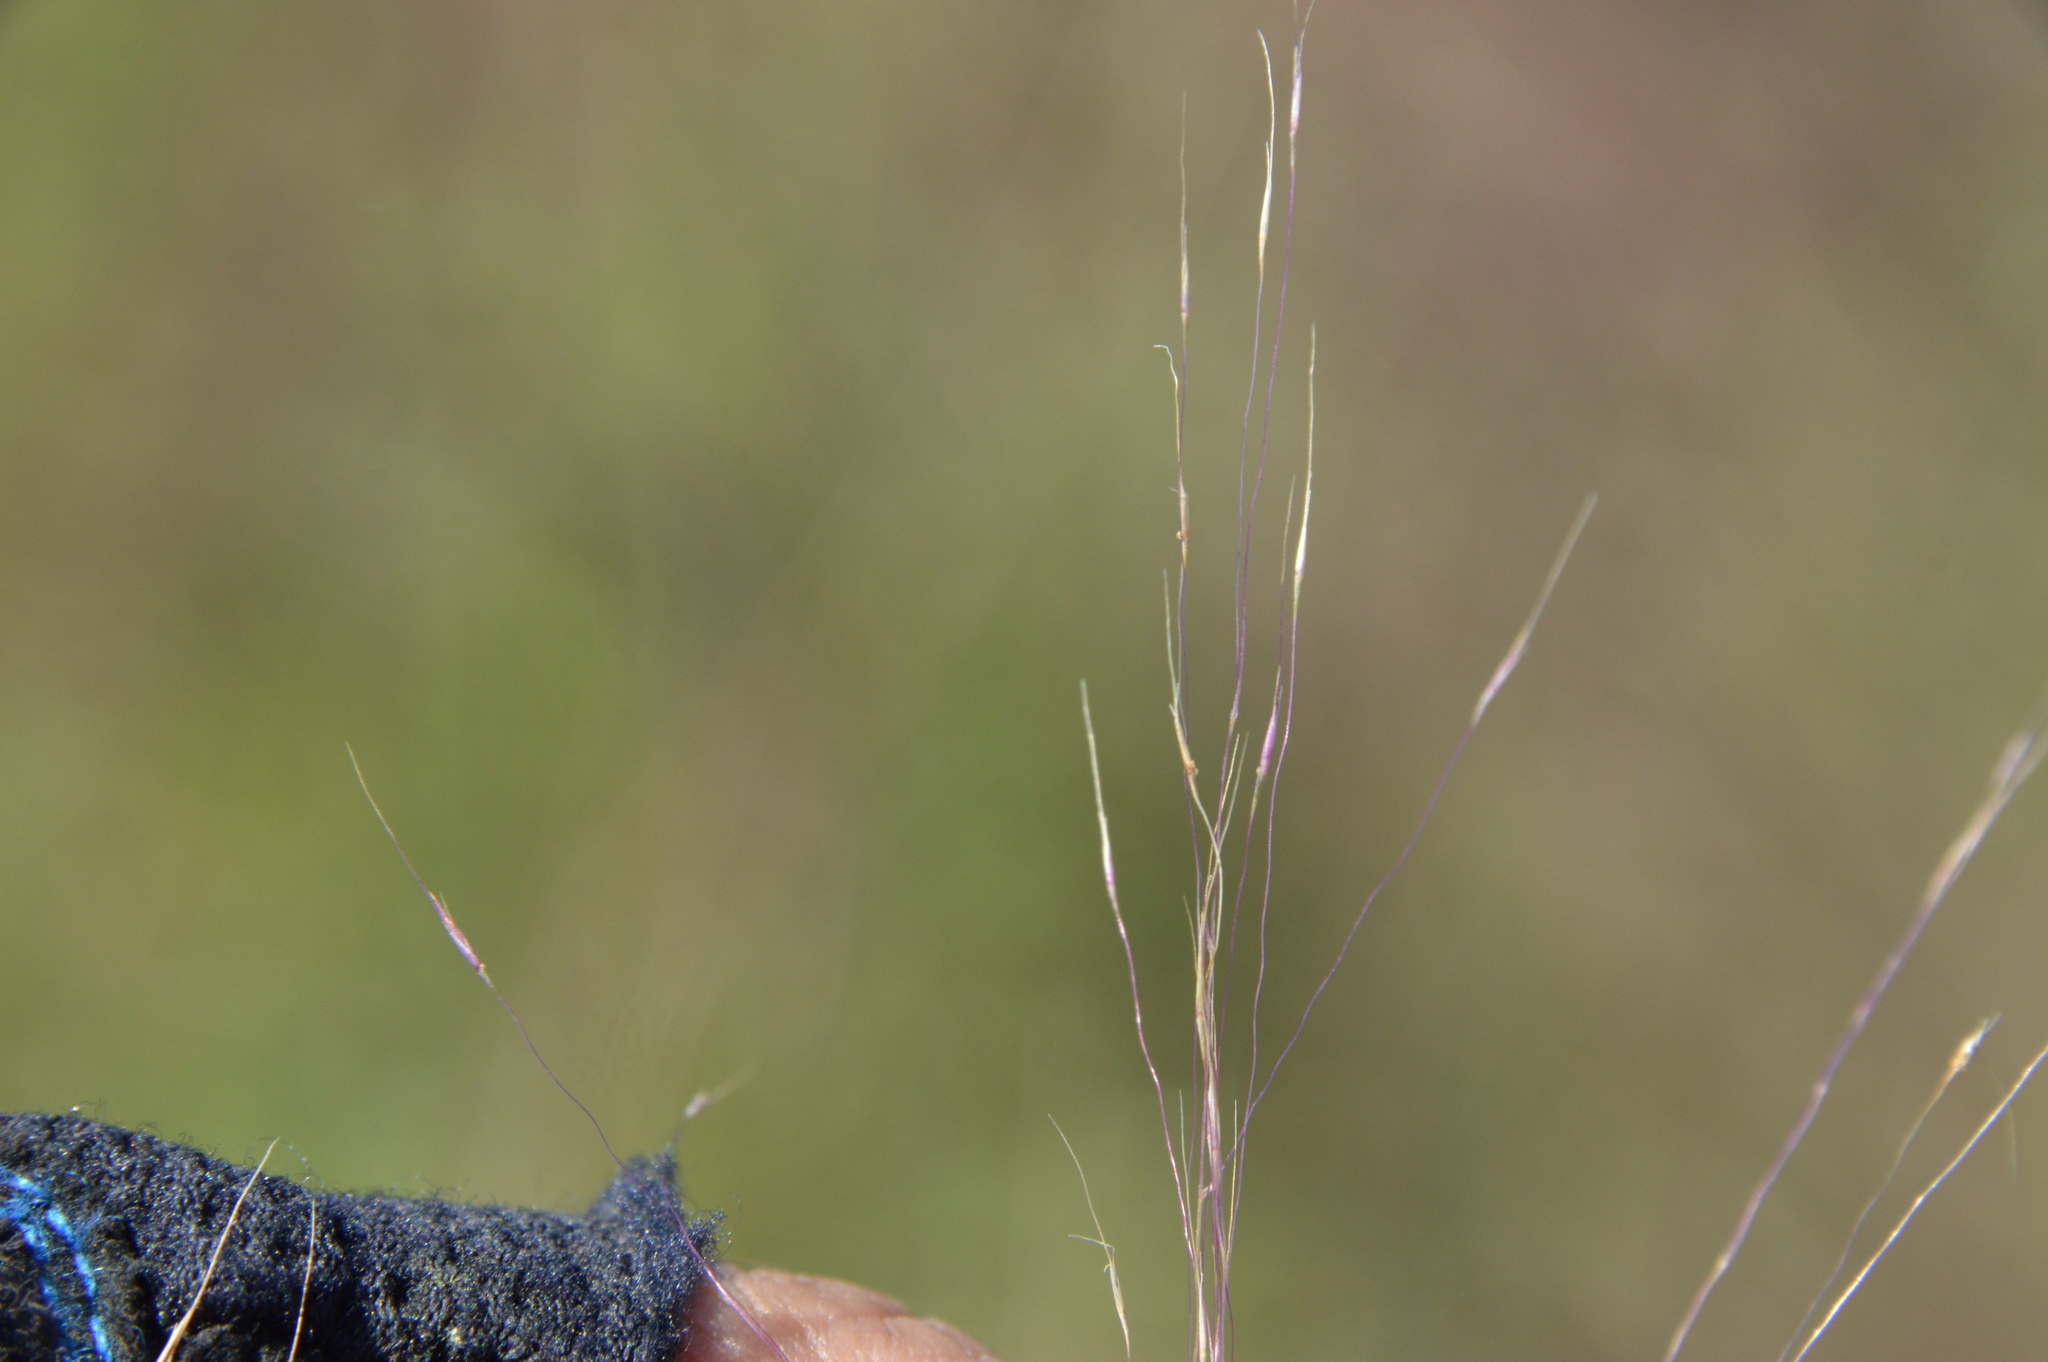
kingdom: Plantae
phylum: Tracheophyta
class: Liliopsida
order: Poales
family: Poaceae
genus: Muhlenbergia
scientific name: Muhlenbergia capillaris
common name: Purple grass
